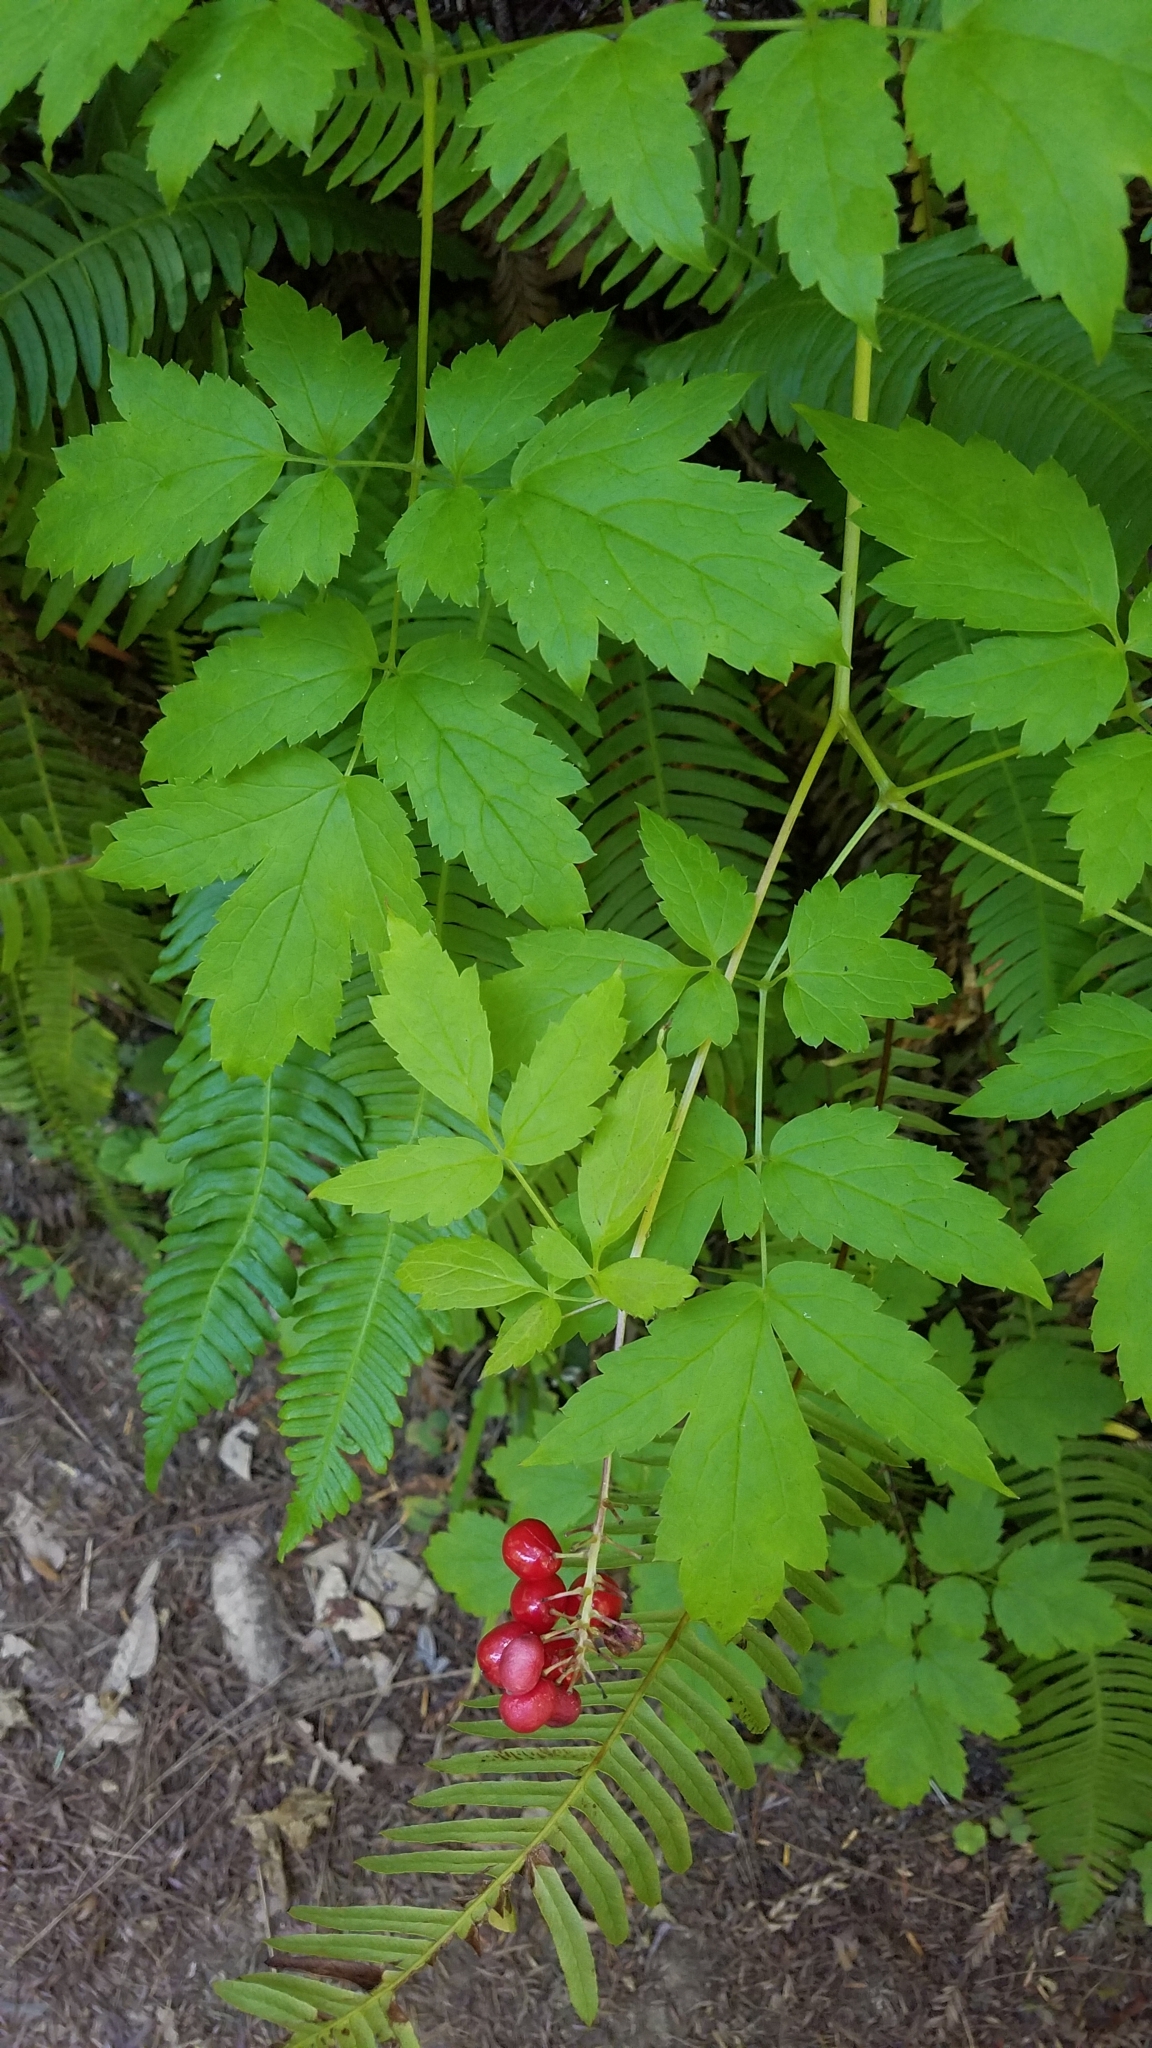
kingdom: Plantae
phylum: Tracheophyta
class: Magnoliopsida
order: Ranunculales
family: Ranunculaceae
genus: Actaea
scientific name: Actaea rubra
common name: Red baneberry
